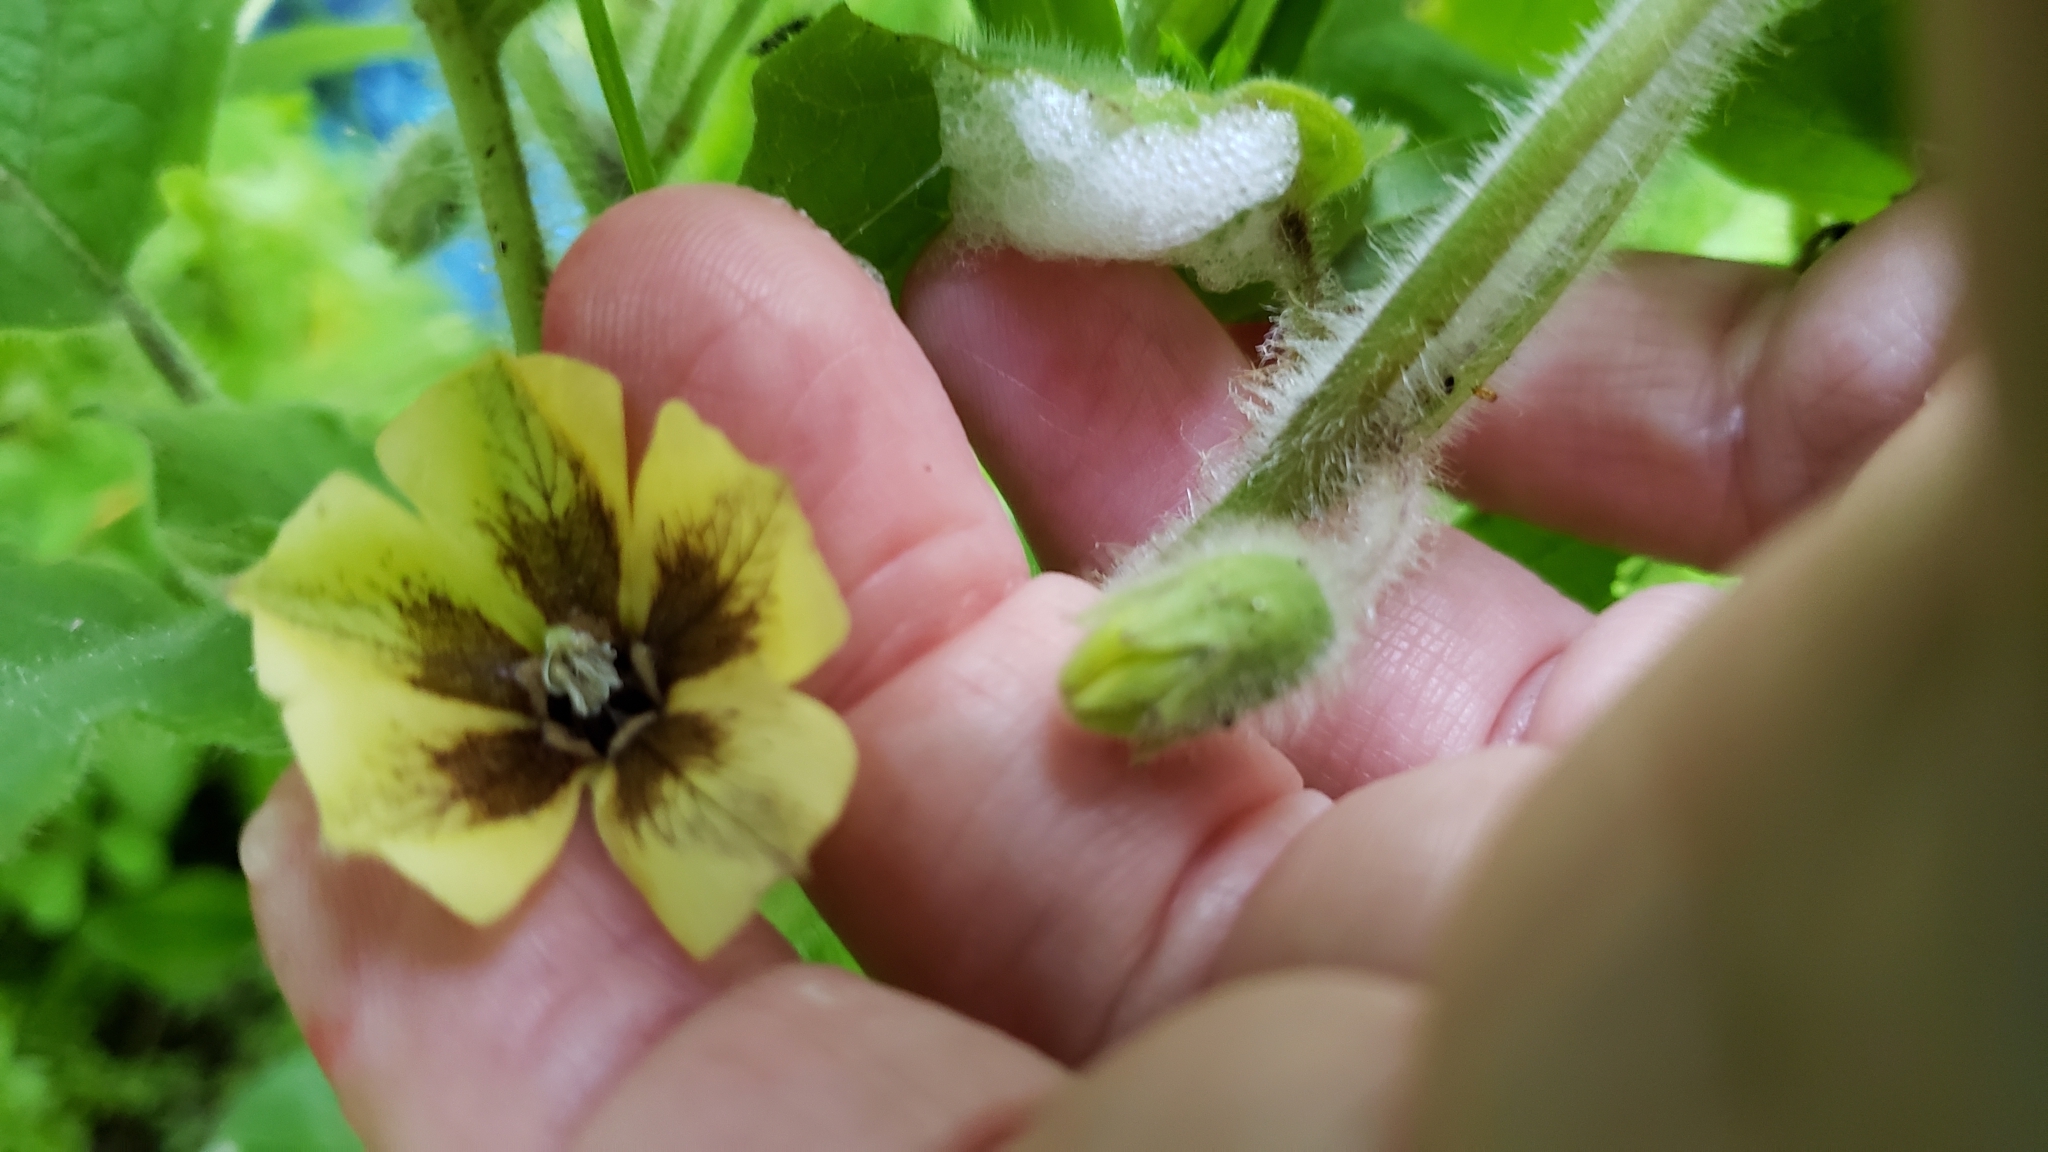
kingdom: Plantae
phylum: Tracheophyta
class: Magnoliopsida
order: Solanales
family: Solanaceae
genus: Physalis
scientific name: Physalis heterophylla
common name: Clammy ground-cherry
